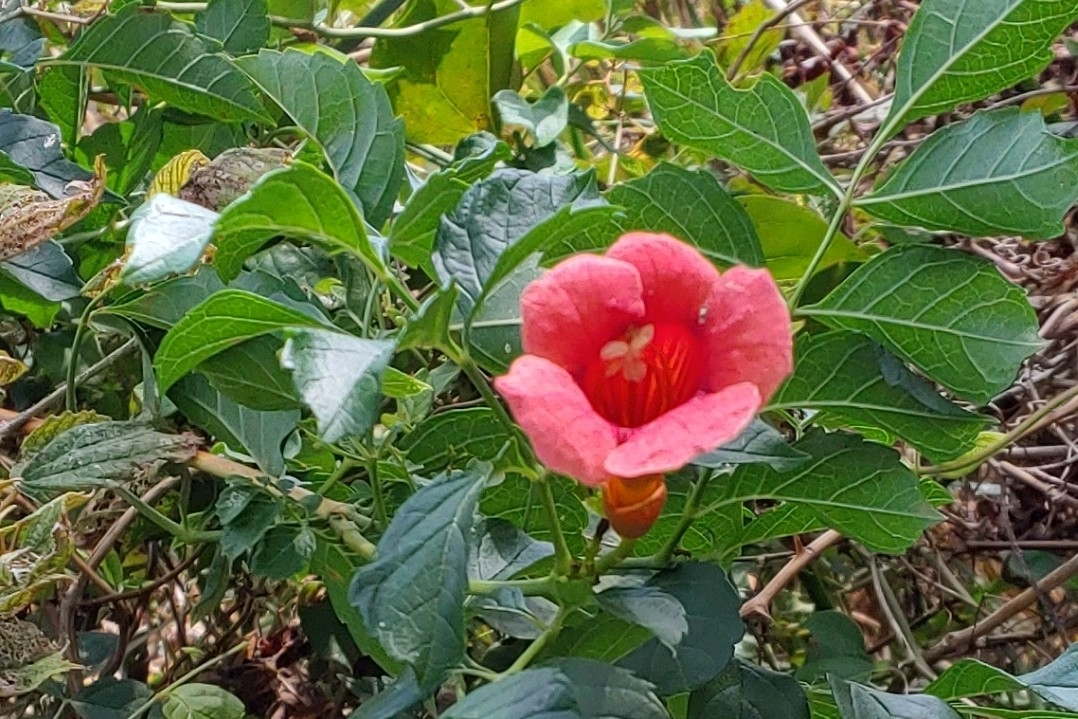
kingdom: Plantae
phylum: Tracheophyta
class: Magnoliopsida
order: Lamiales
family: Bignoniaceae
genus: Campsis
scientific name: Campsis radicans
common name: Trumpet-creeper
